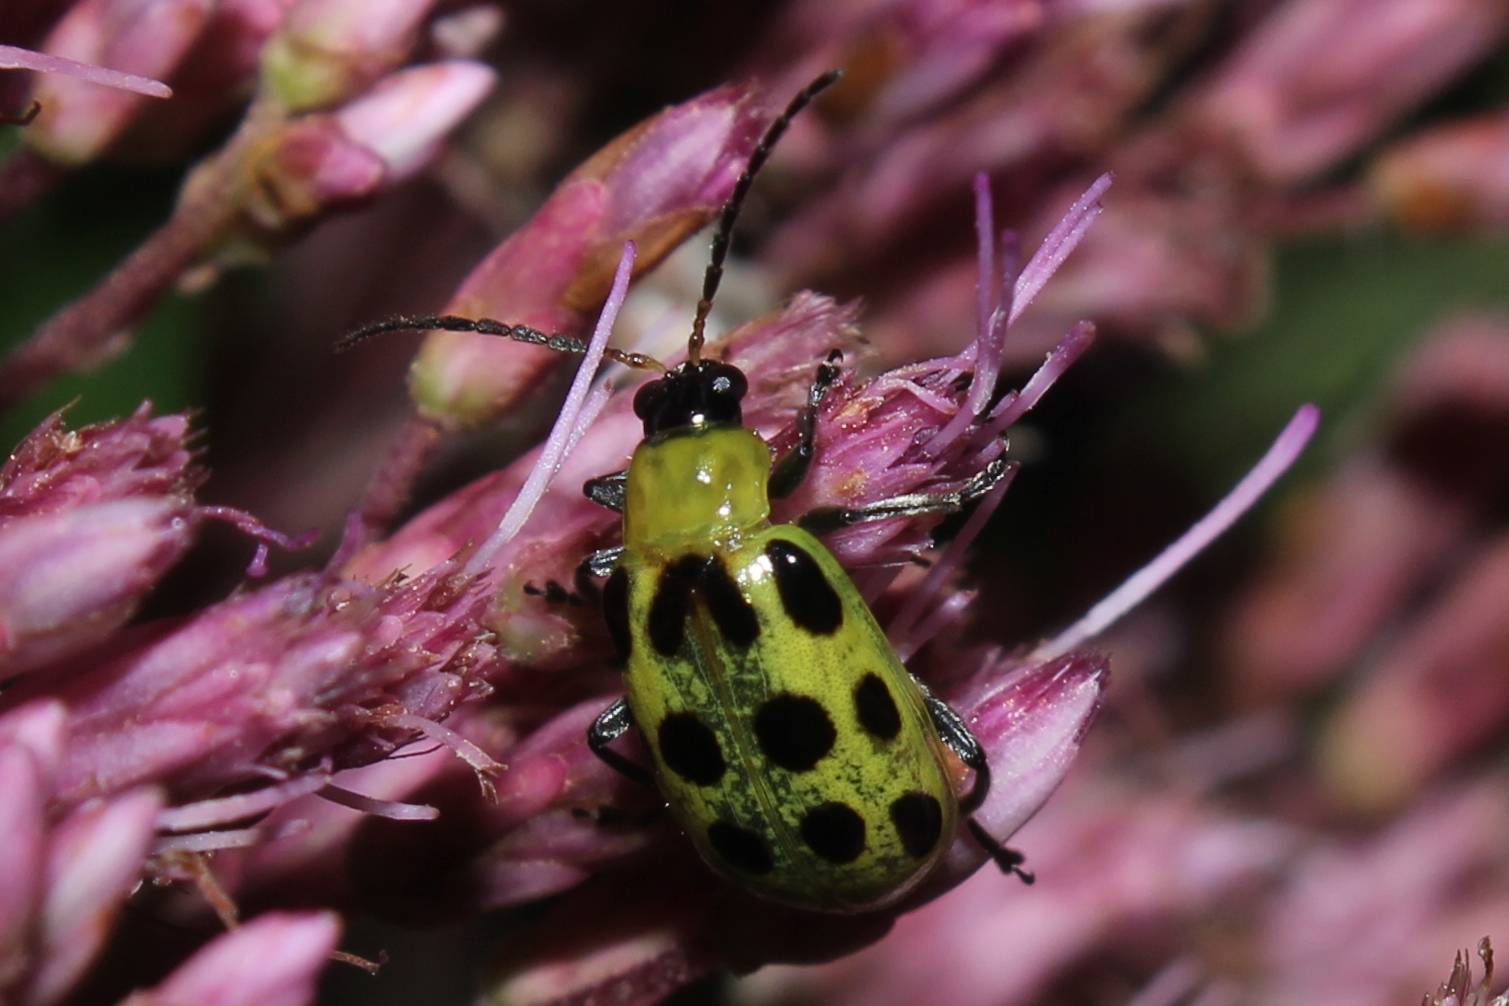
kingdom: Animalia
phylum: Arthropoda
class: Insecta
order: Coleoptera
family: Chrysomelidae
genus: Diabrotica
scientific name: Diabrotica undecimpunctata
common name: Spotted cucumber beetle
